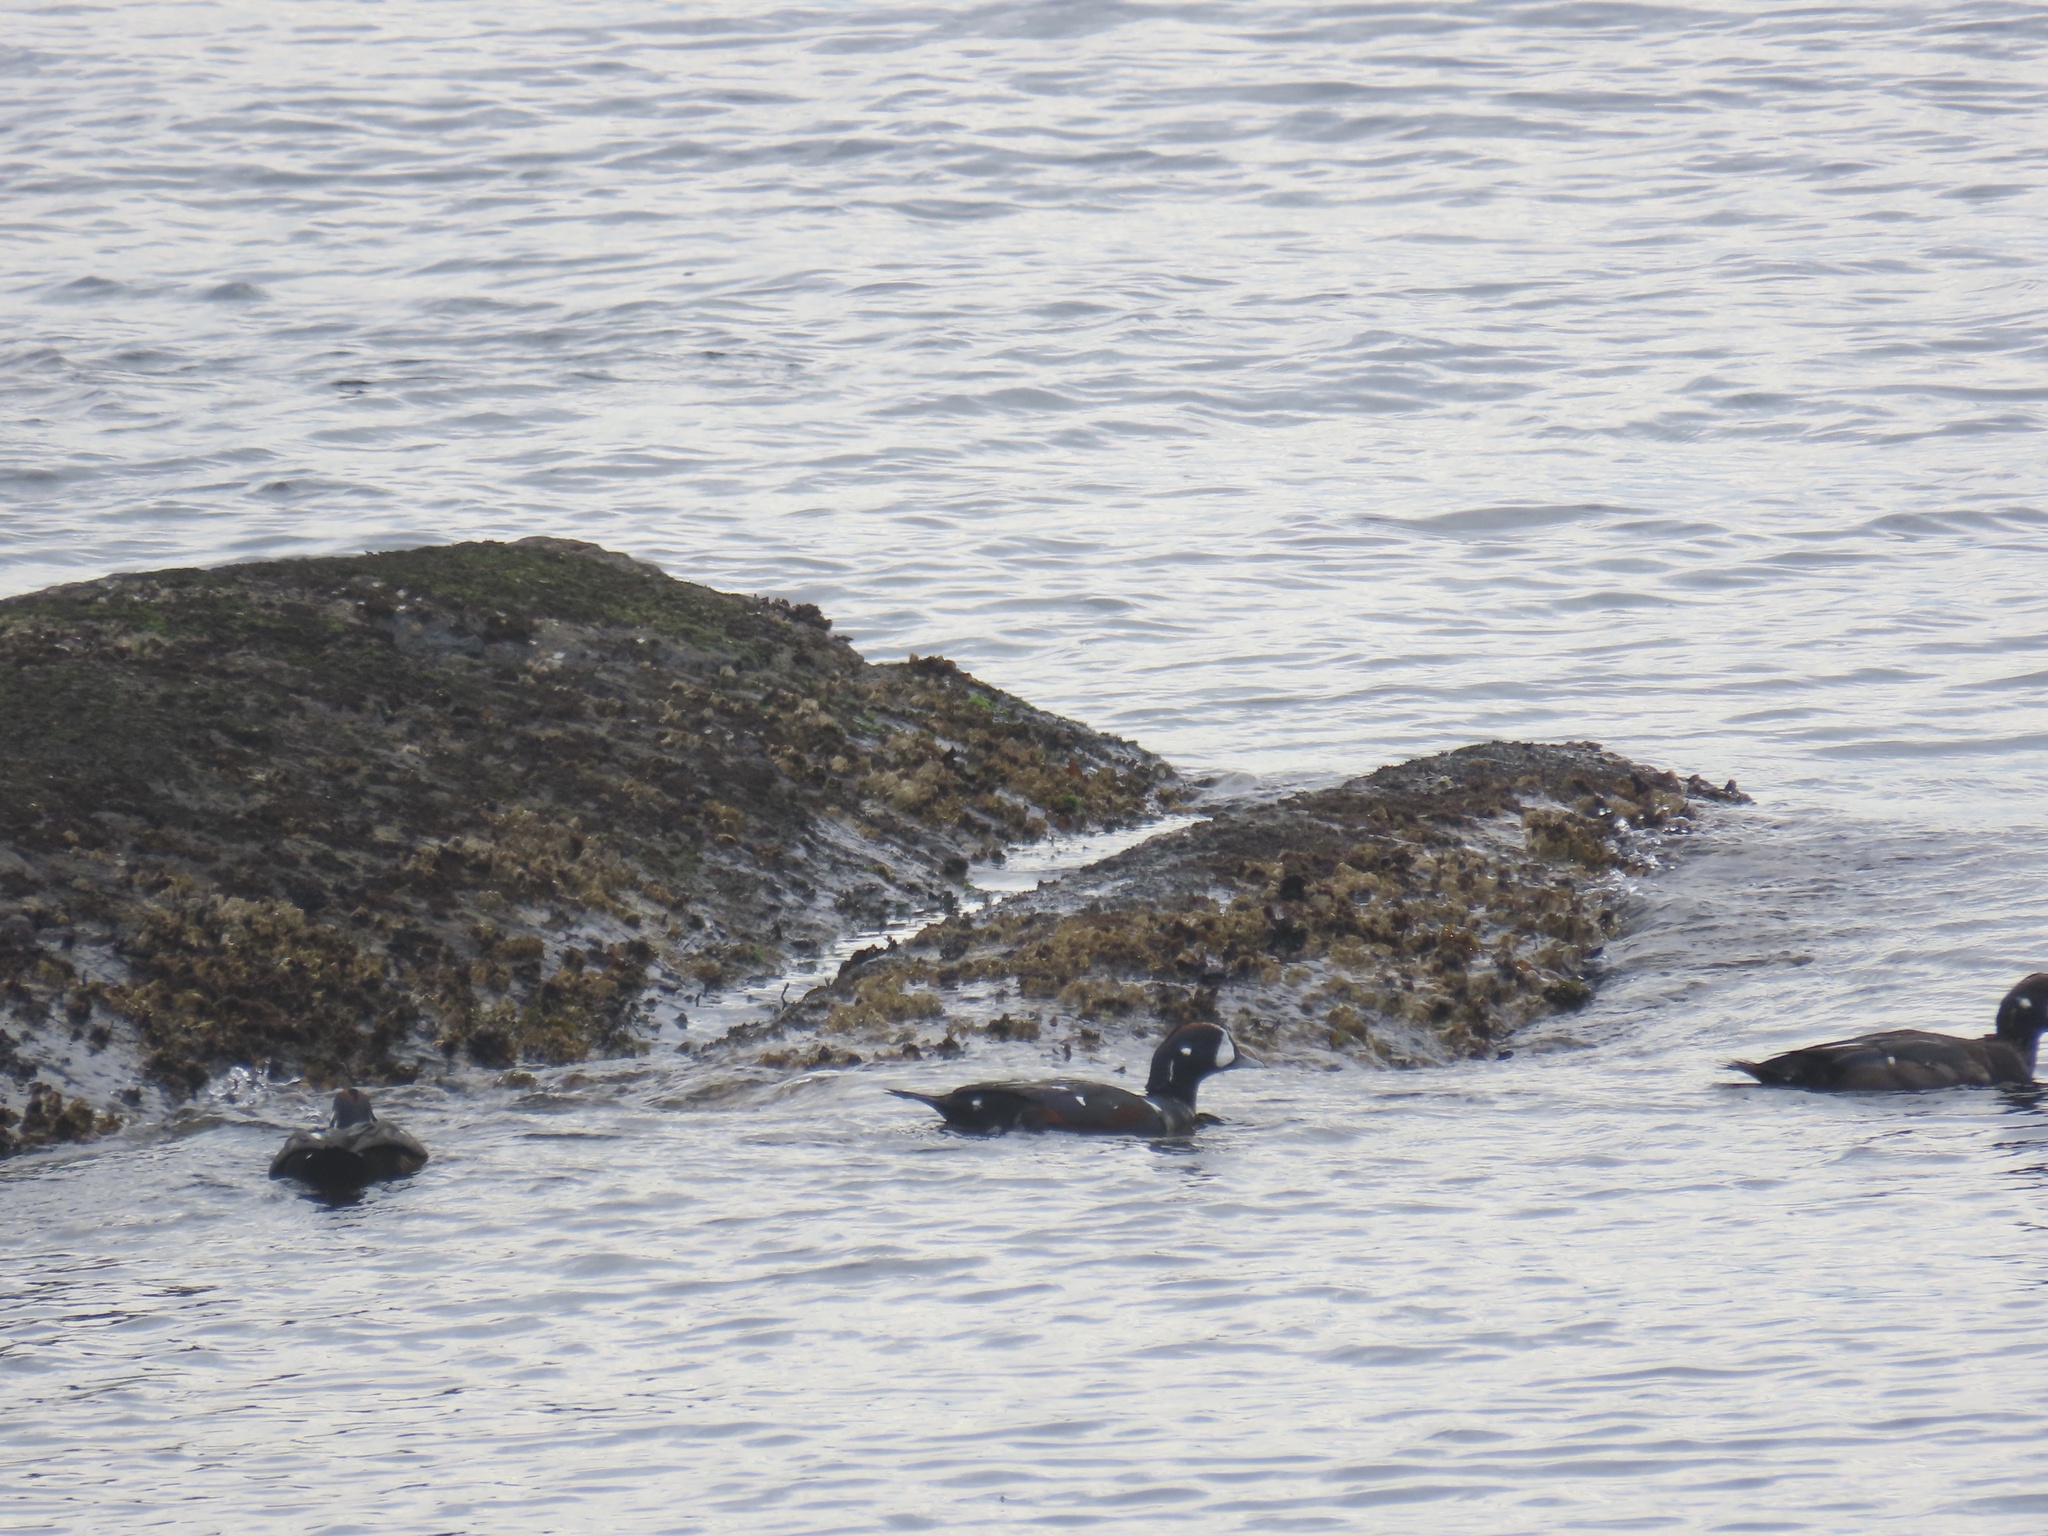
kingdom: Animalia
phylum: Chordata
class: Aves
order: Anseriformes
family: Anatidae
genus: Histrionicus
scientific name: Histrionicus histrionicus
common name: Harlequin duck
